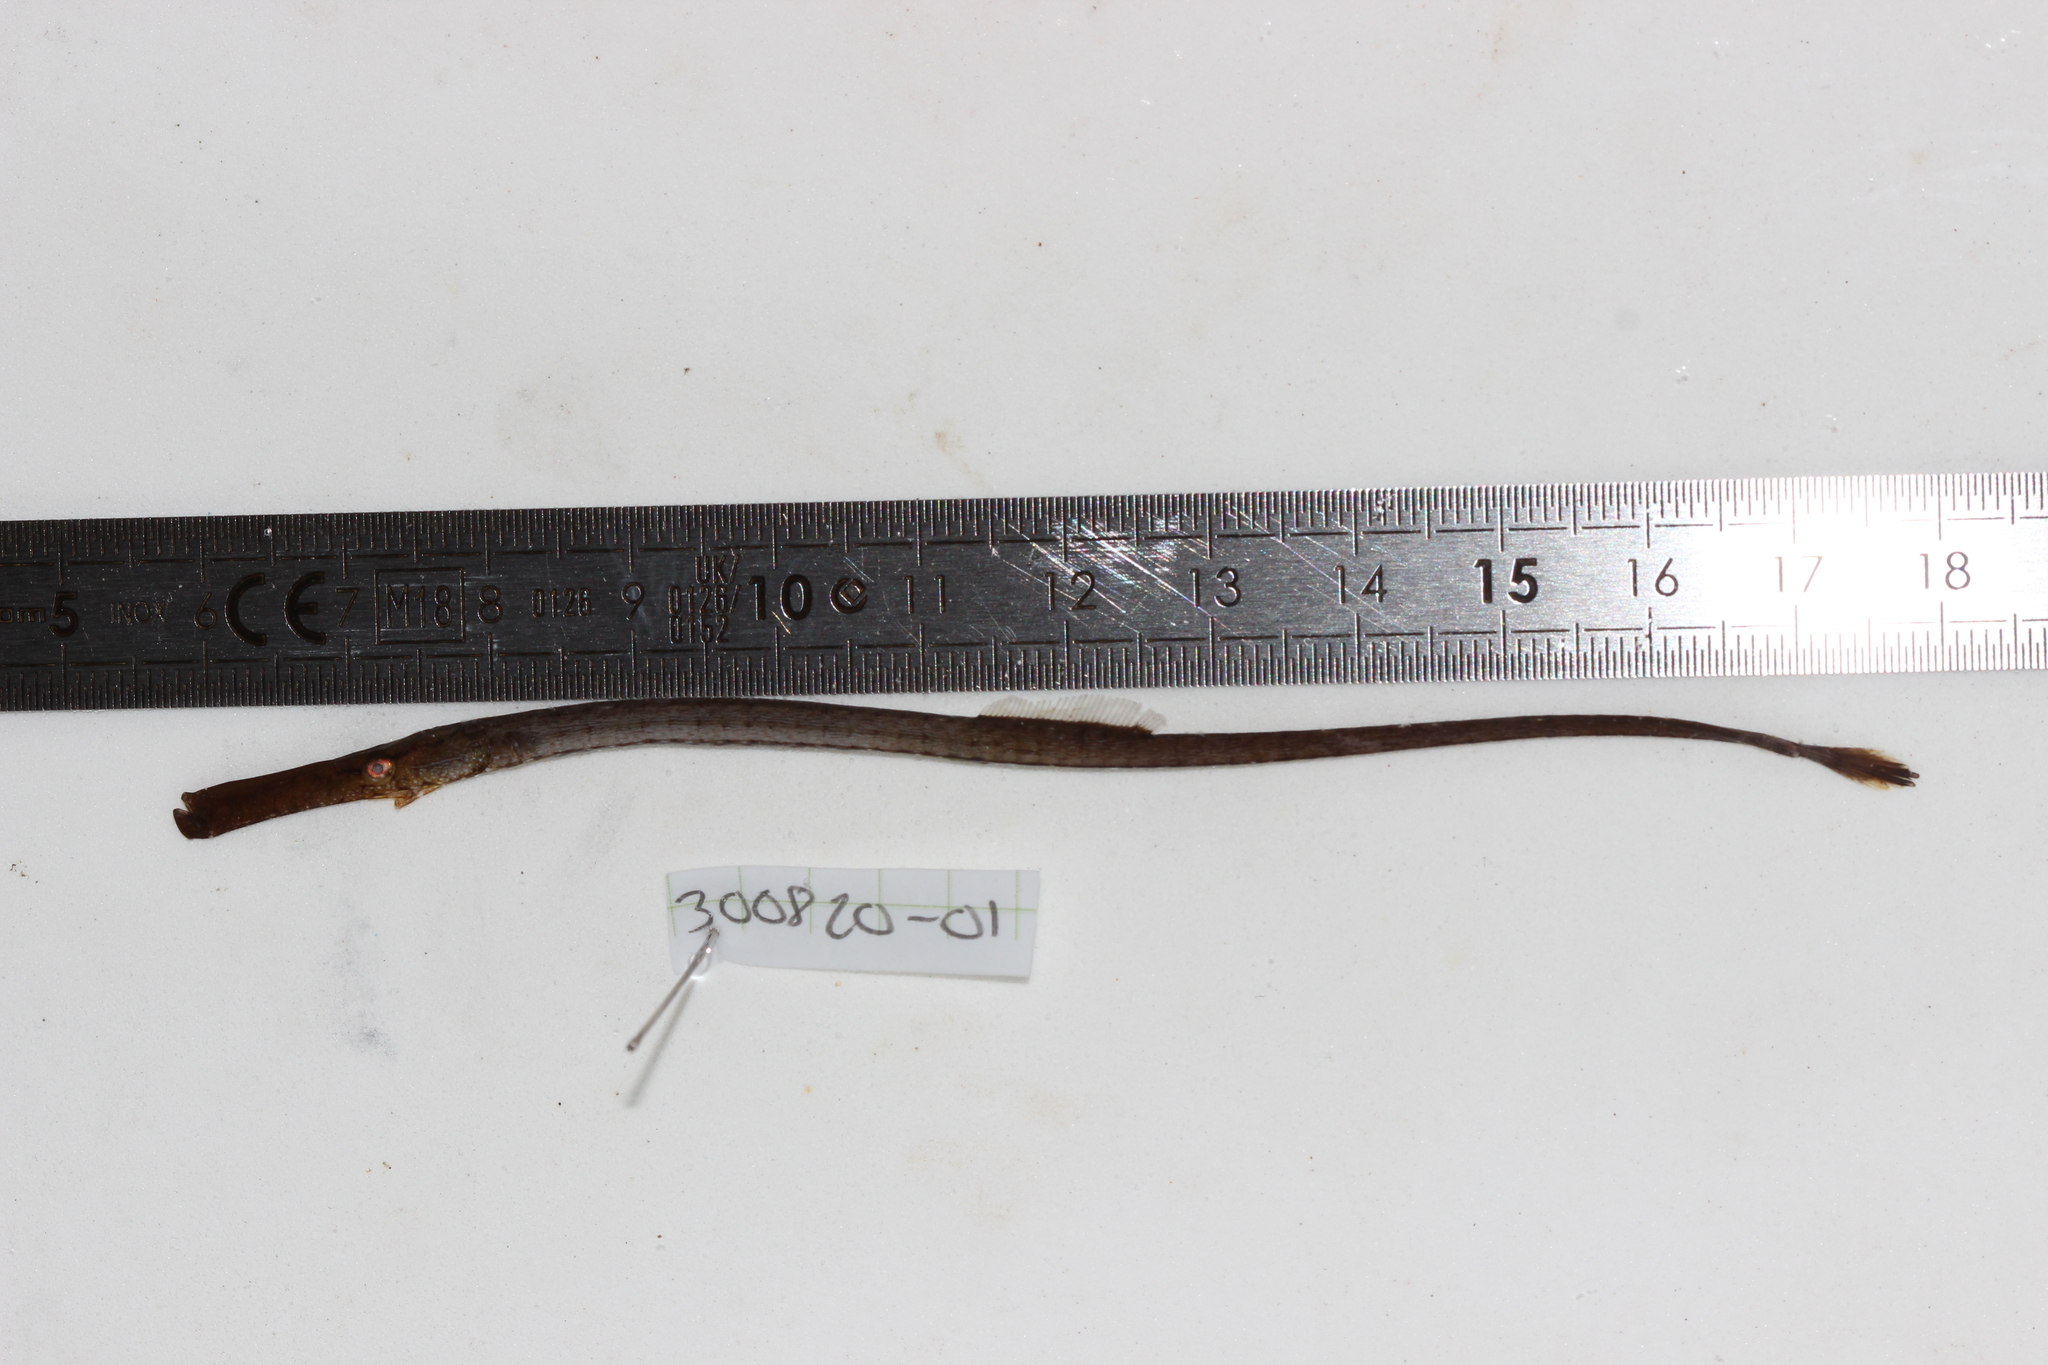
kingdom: Animalia
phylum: Chordata
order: Syngnathiformes
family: Syngnathidae
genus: Syngnathus
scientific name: Syngnathus typhle
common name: Deep-snouted pipefish
